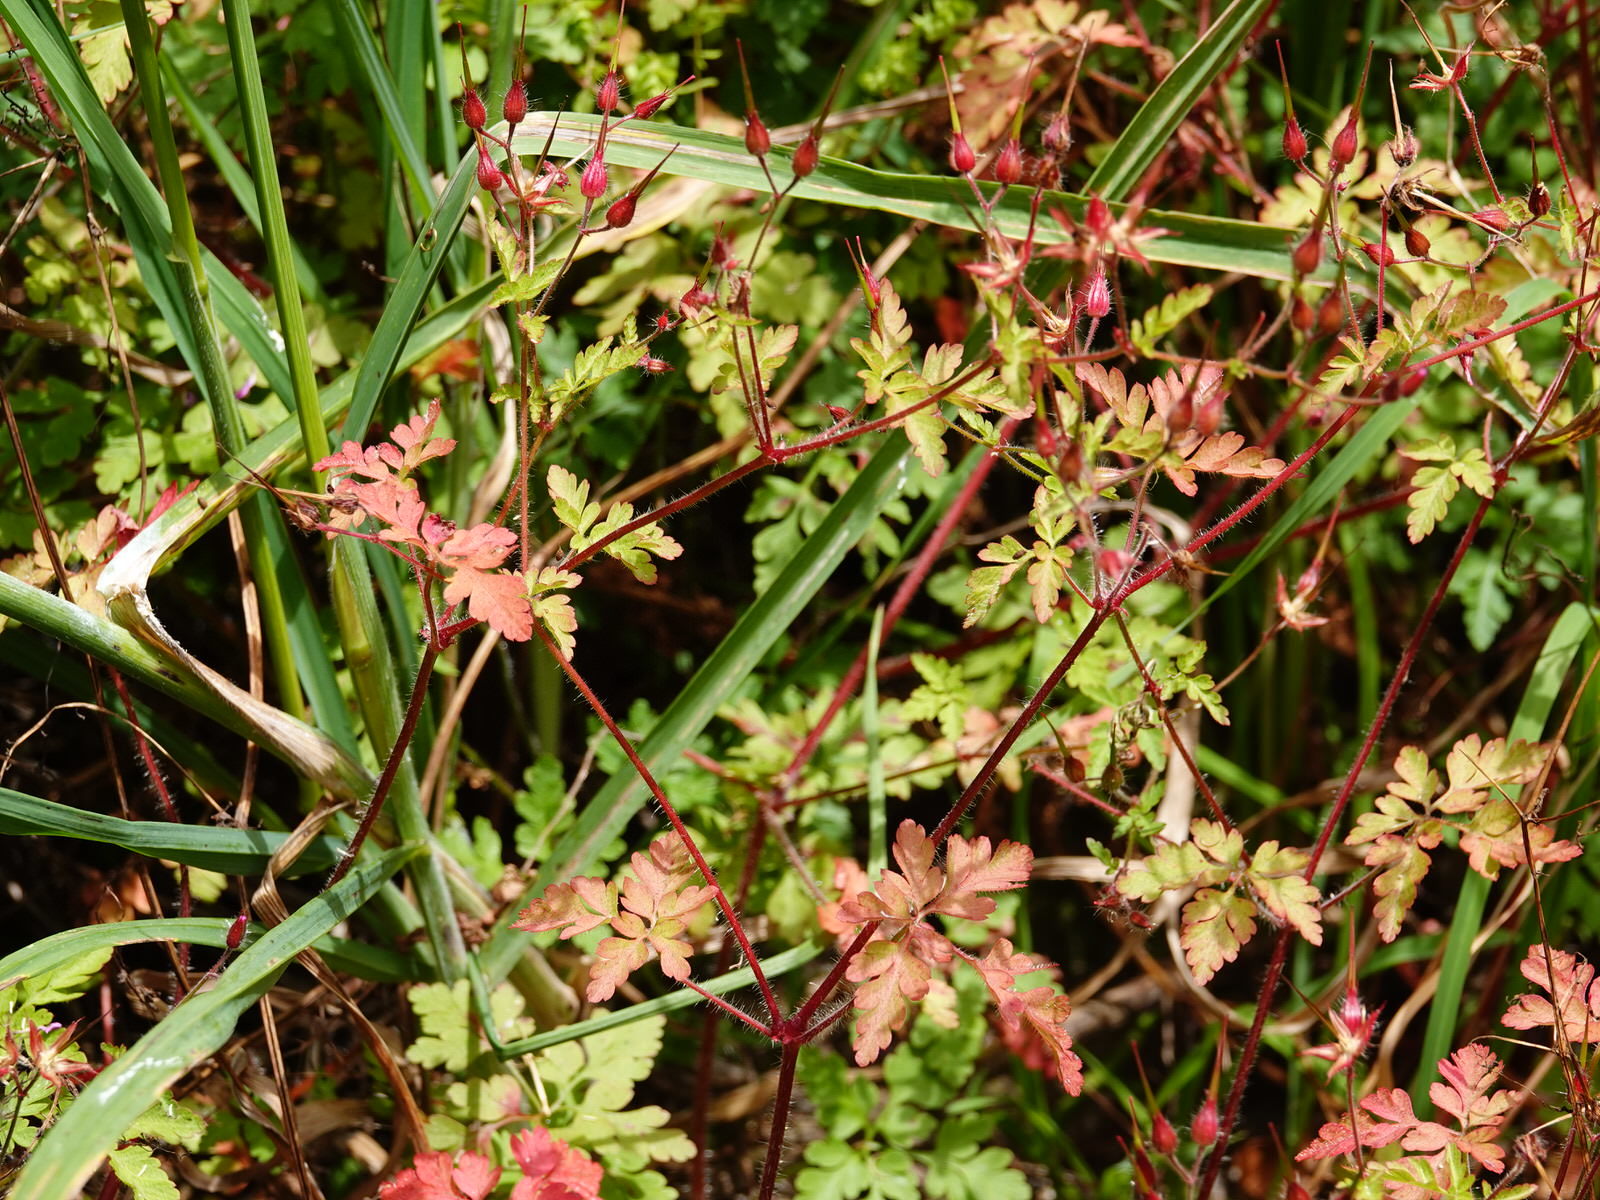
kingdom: Plantae
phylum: Tracheophyta
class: Magnoliopsida
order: Geraniales
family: Geraniaceae
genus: Geranium
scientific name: Geranium robertianum
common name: Herb-robert
